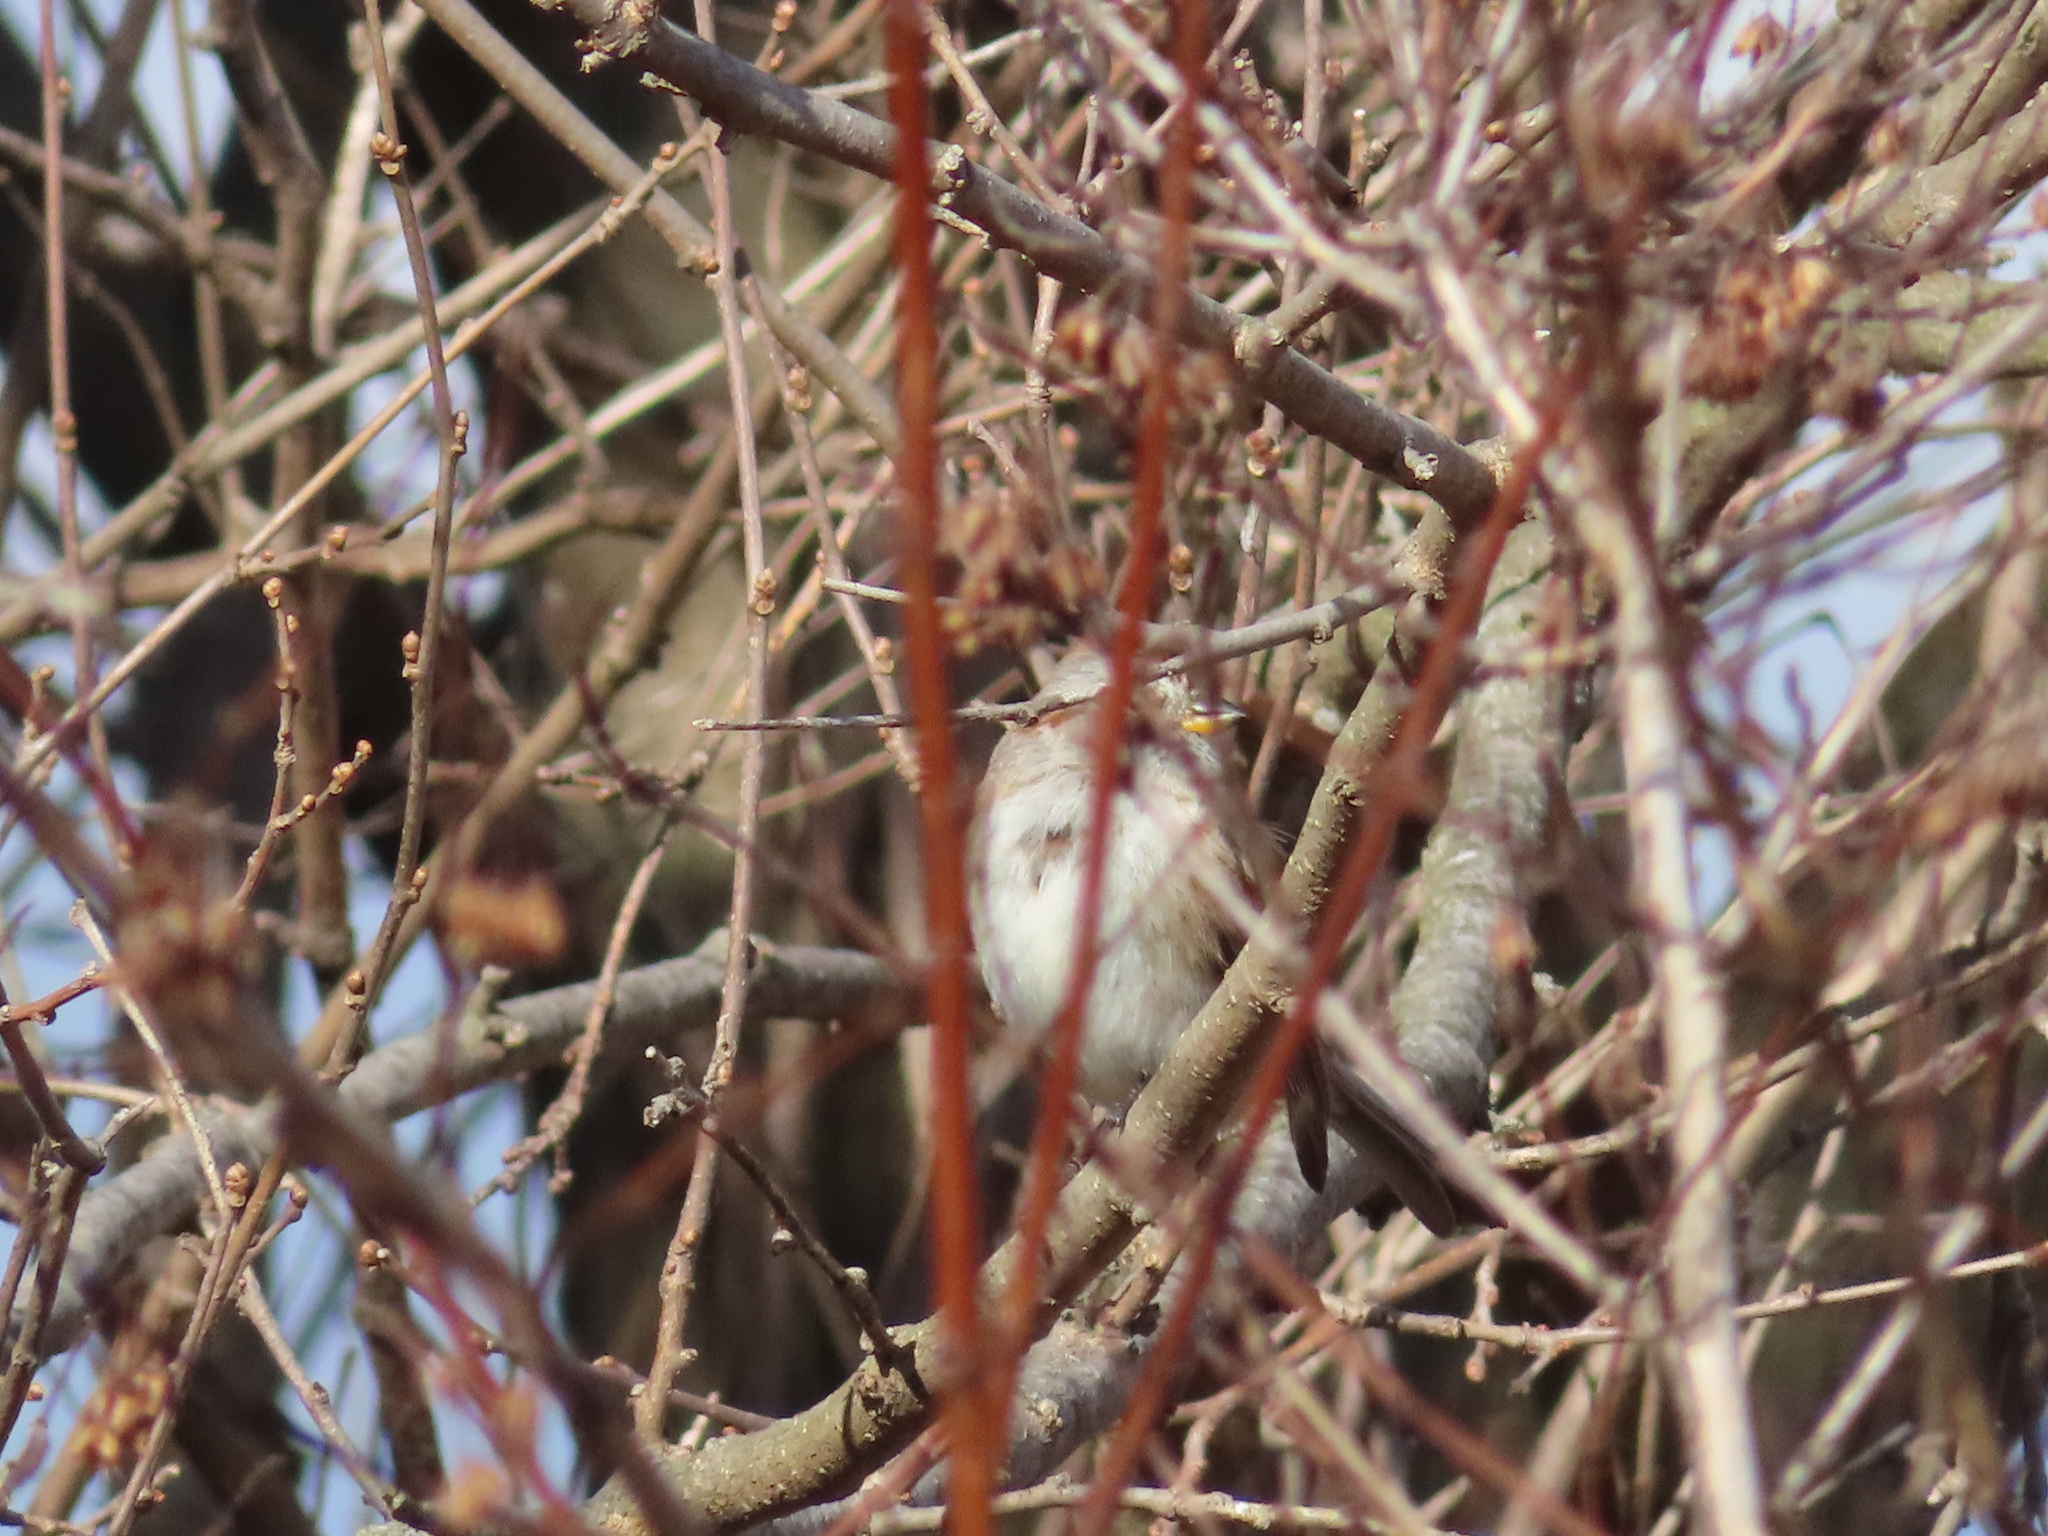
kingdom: Animalia
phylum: Chordata
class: Aves
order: Passeriformes
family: Passerellidae
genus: Spizelloides
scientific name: Spizelloides arborea
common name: American tree sparrow
